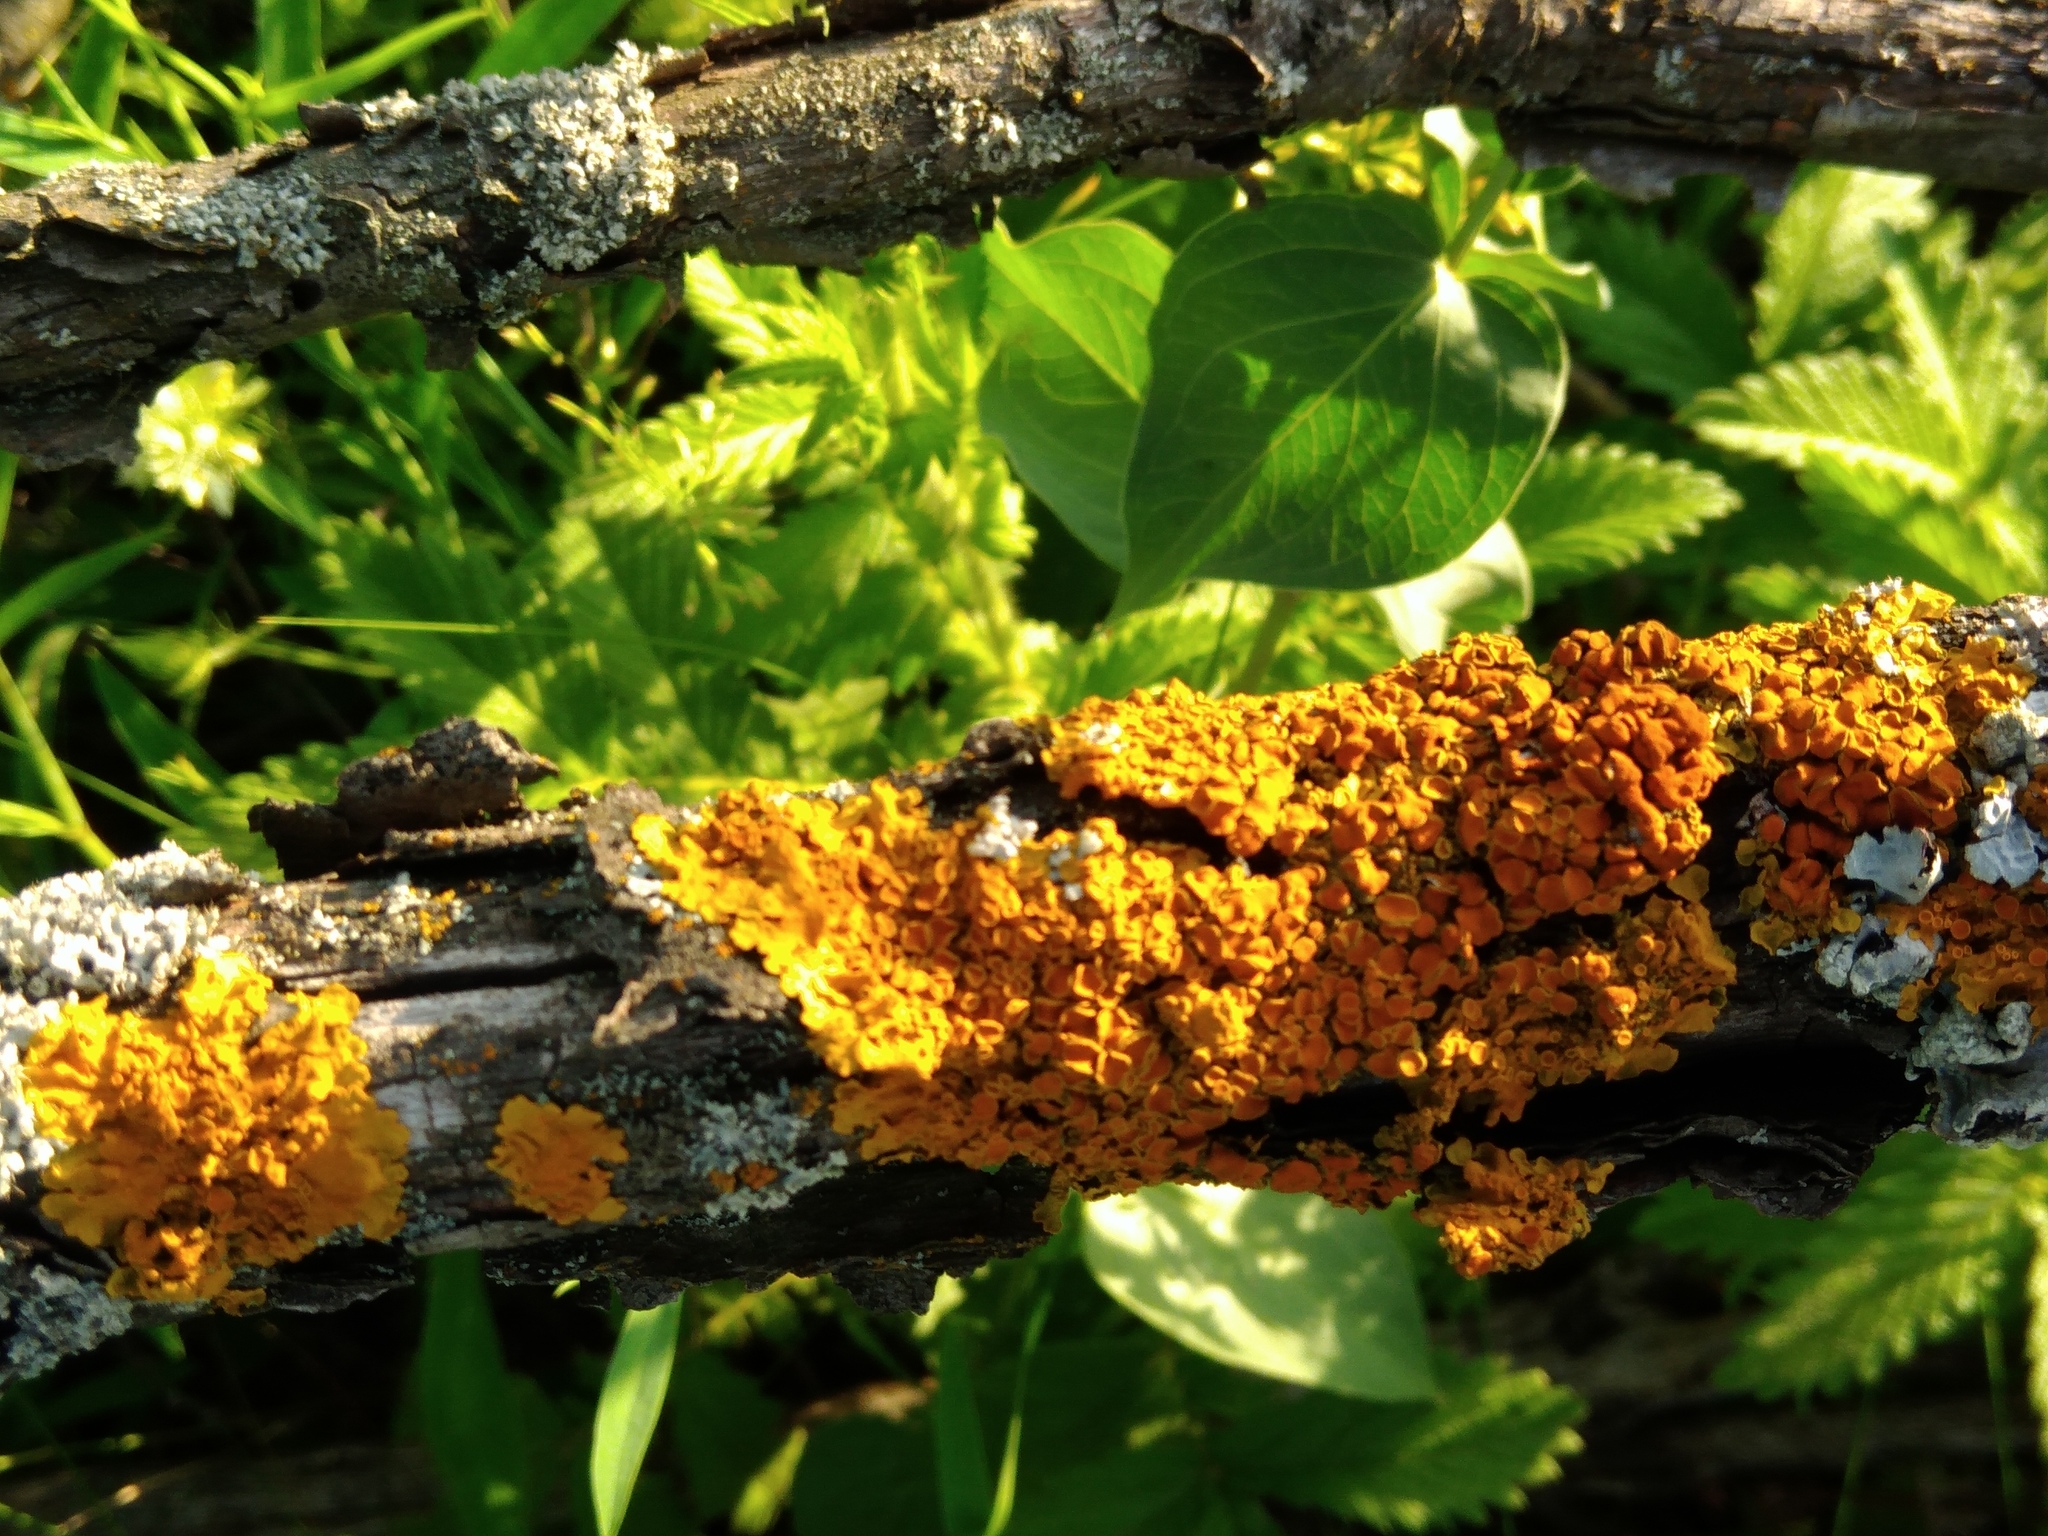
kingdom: Fungi
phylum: Ascomycota
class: Lecanoromycetes
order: Teloschistales
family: Teloschistaceae
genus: Xanthoria
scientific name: Xanthoria parietina
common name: Common orange lichen
